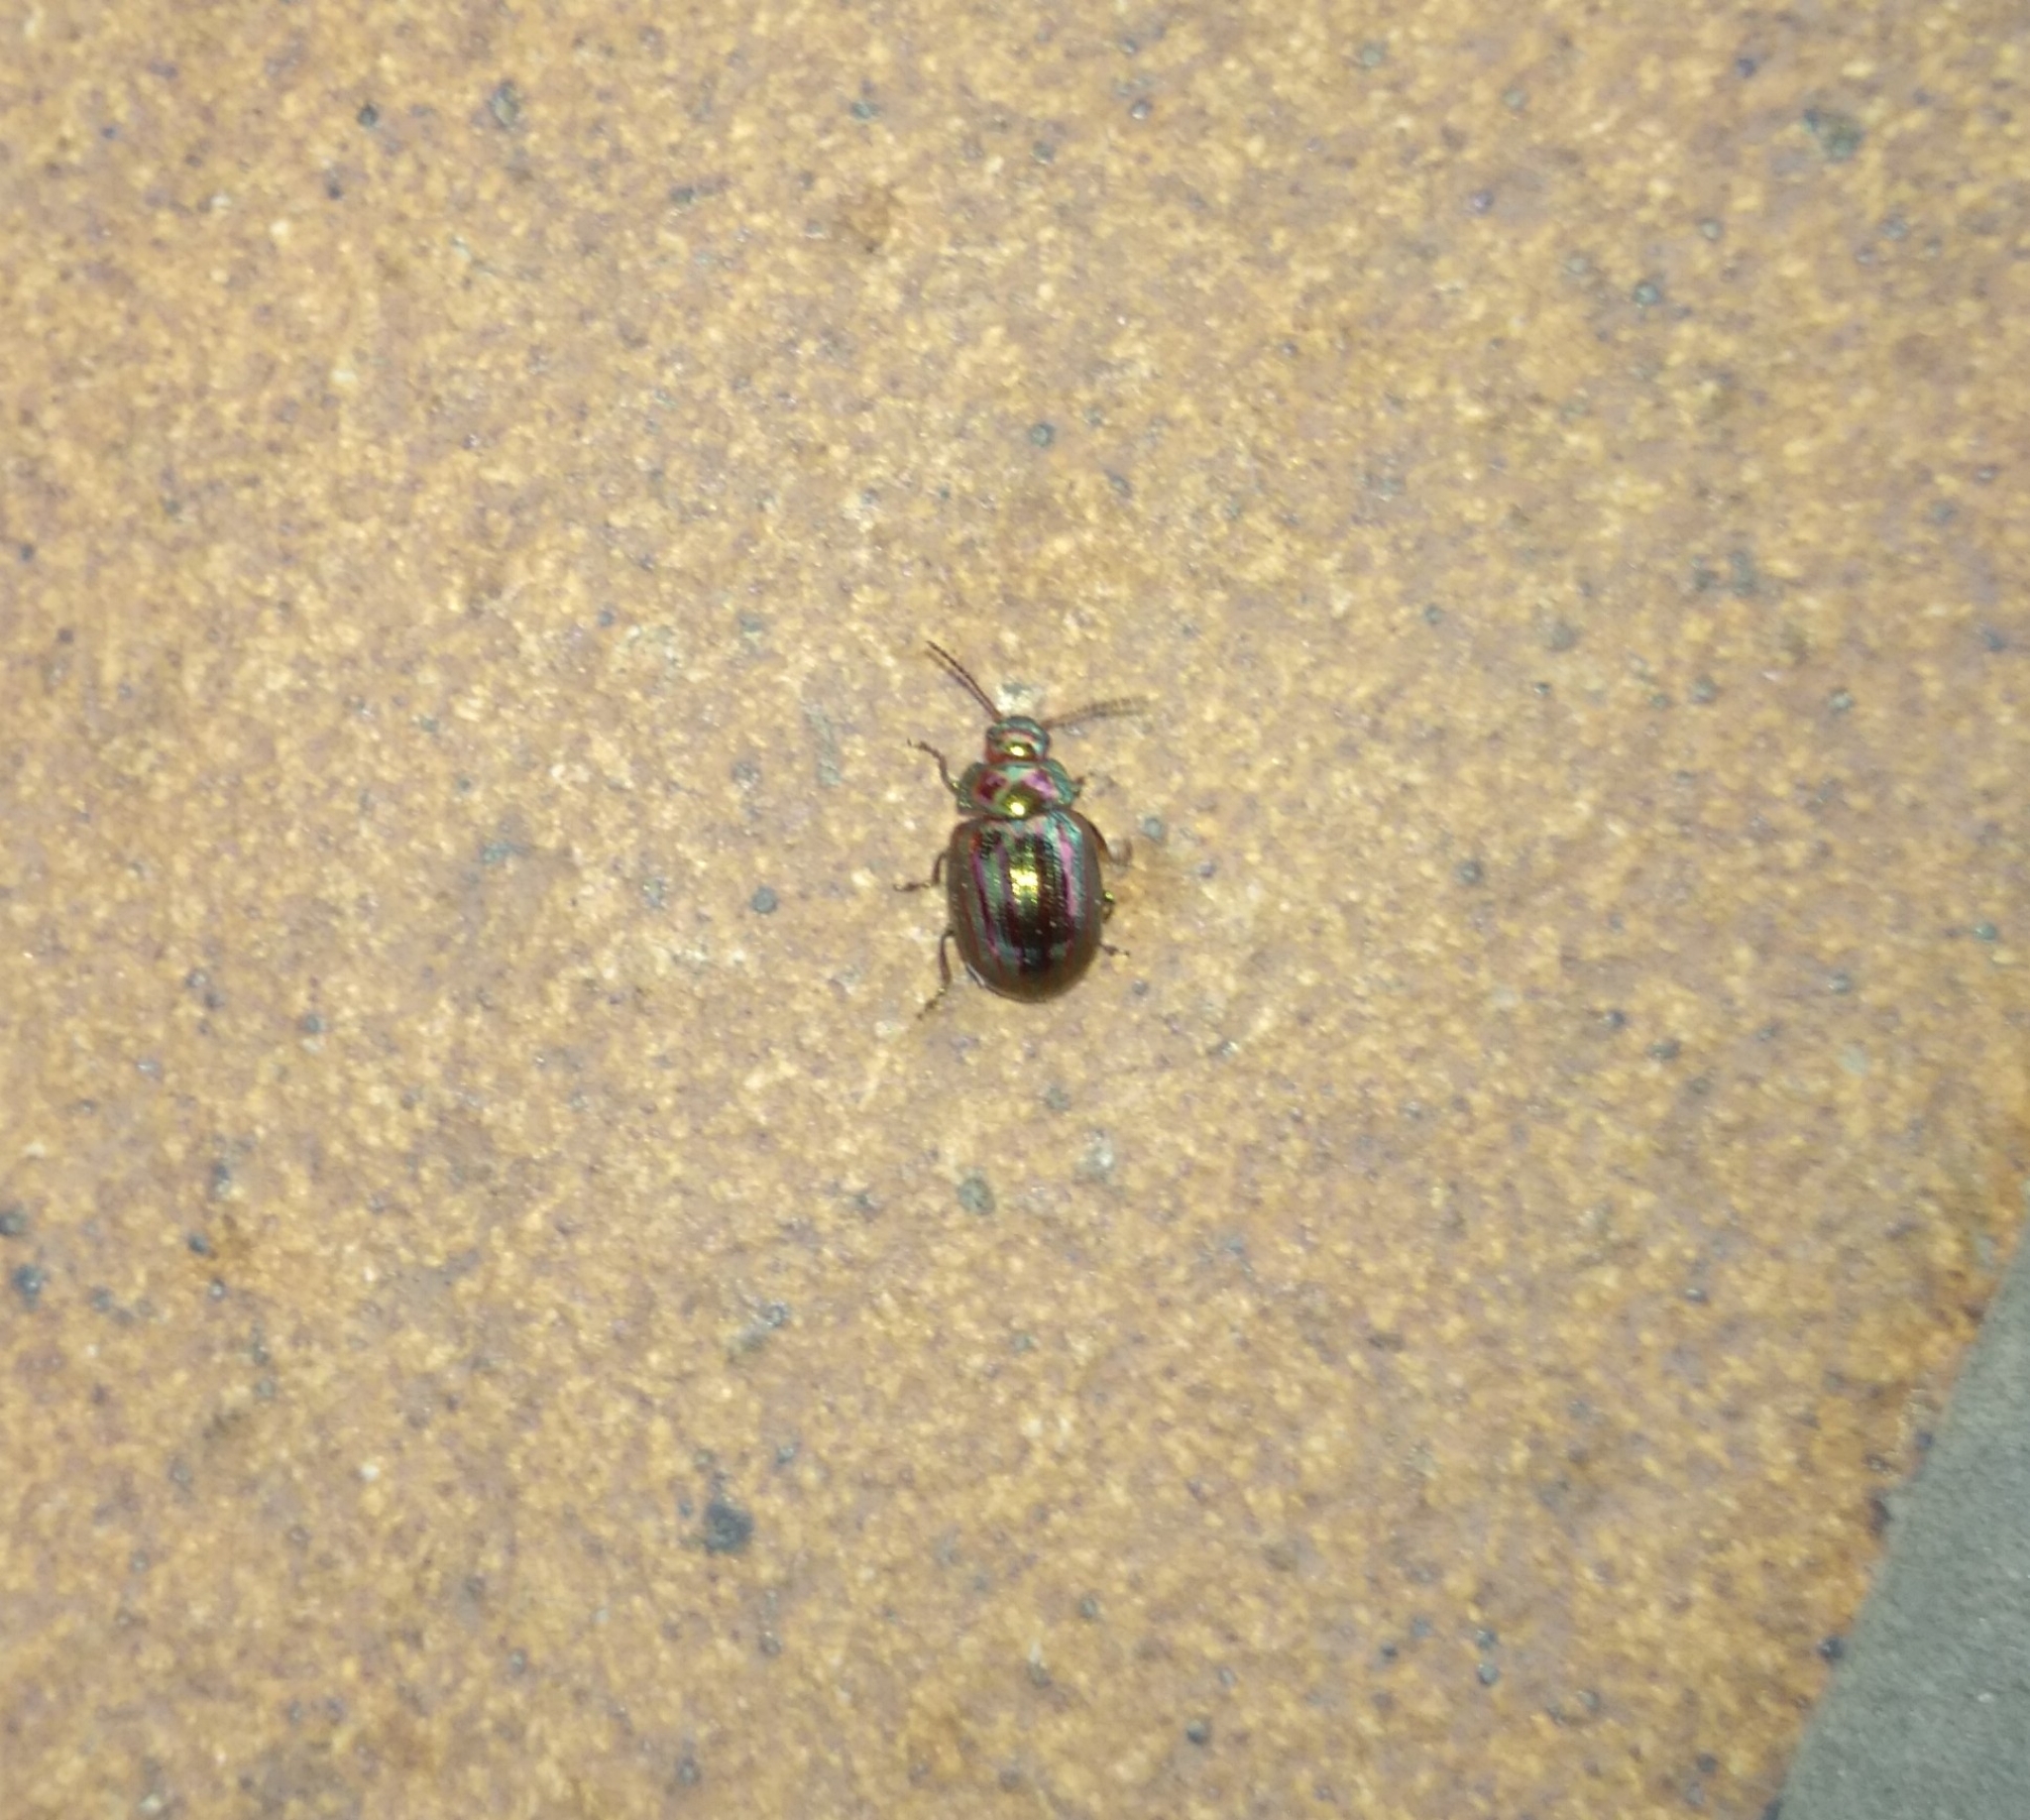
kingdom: Animalia
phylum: Arthropoda
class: Insecta
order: Coleoptera
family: Chrysomelidae
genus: Chrysolina
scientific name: Chrysolina americana
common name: Rosemary beetle
